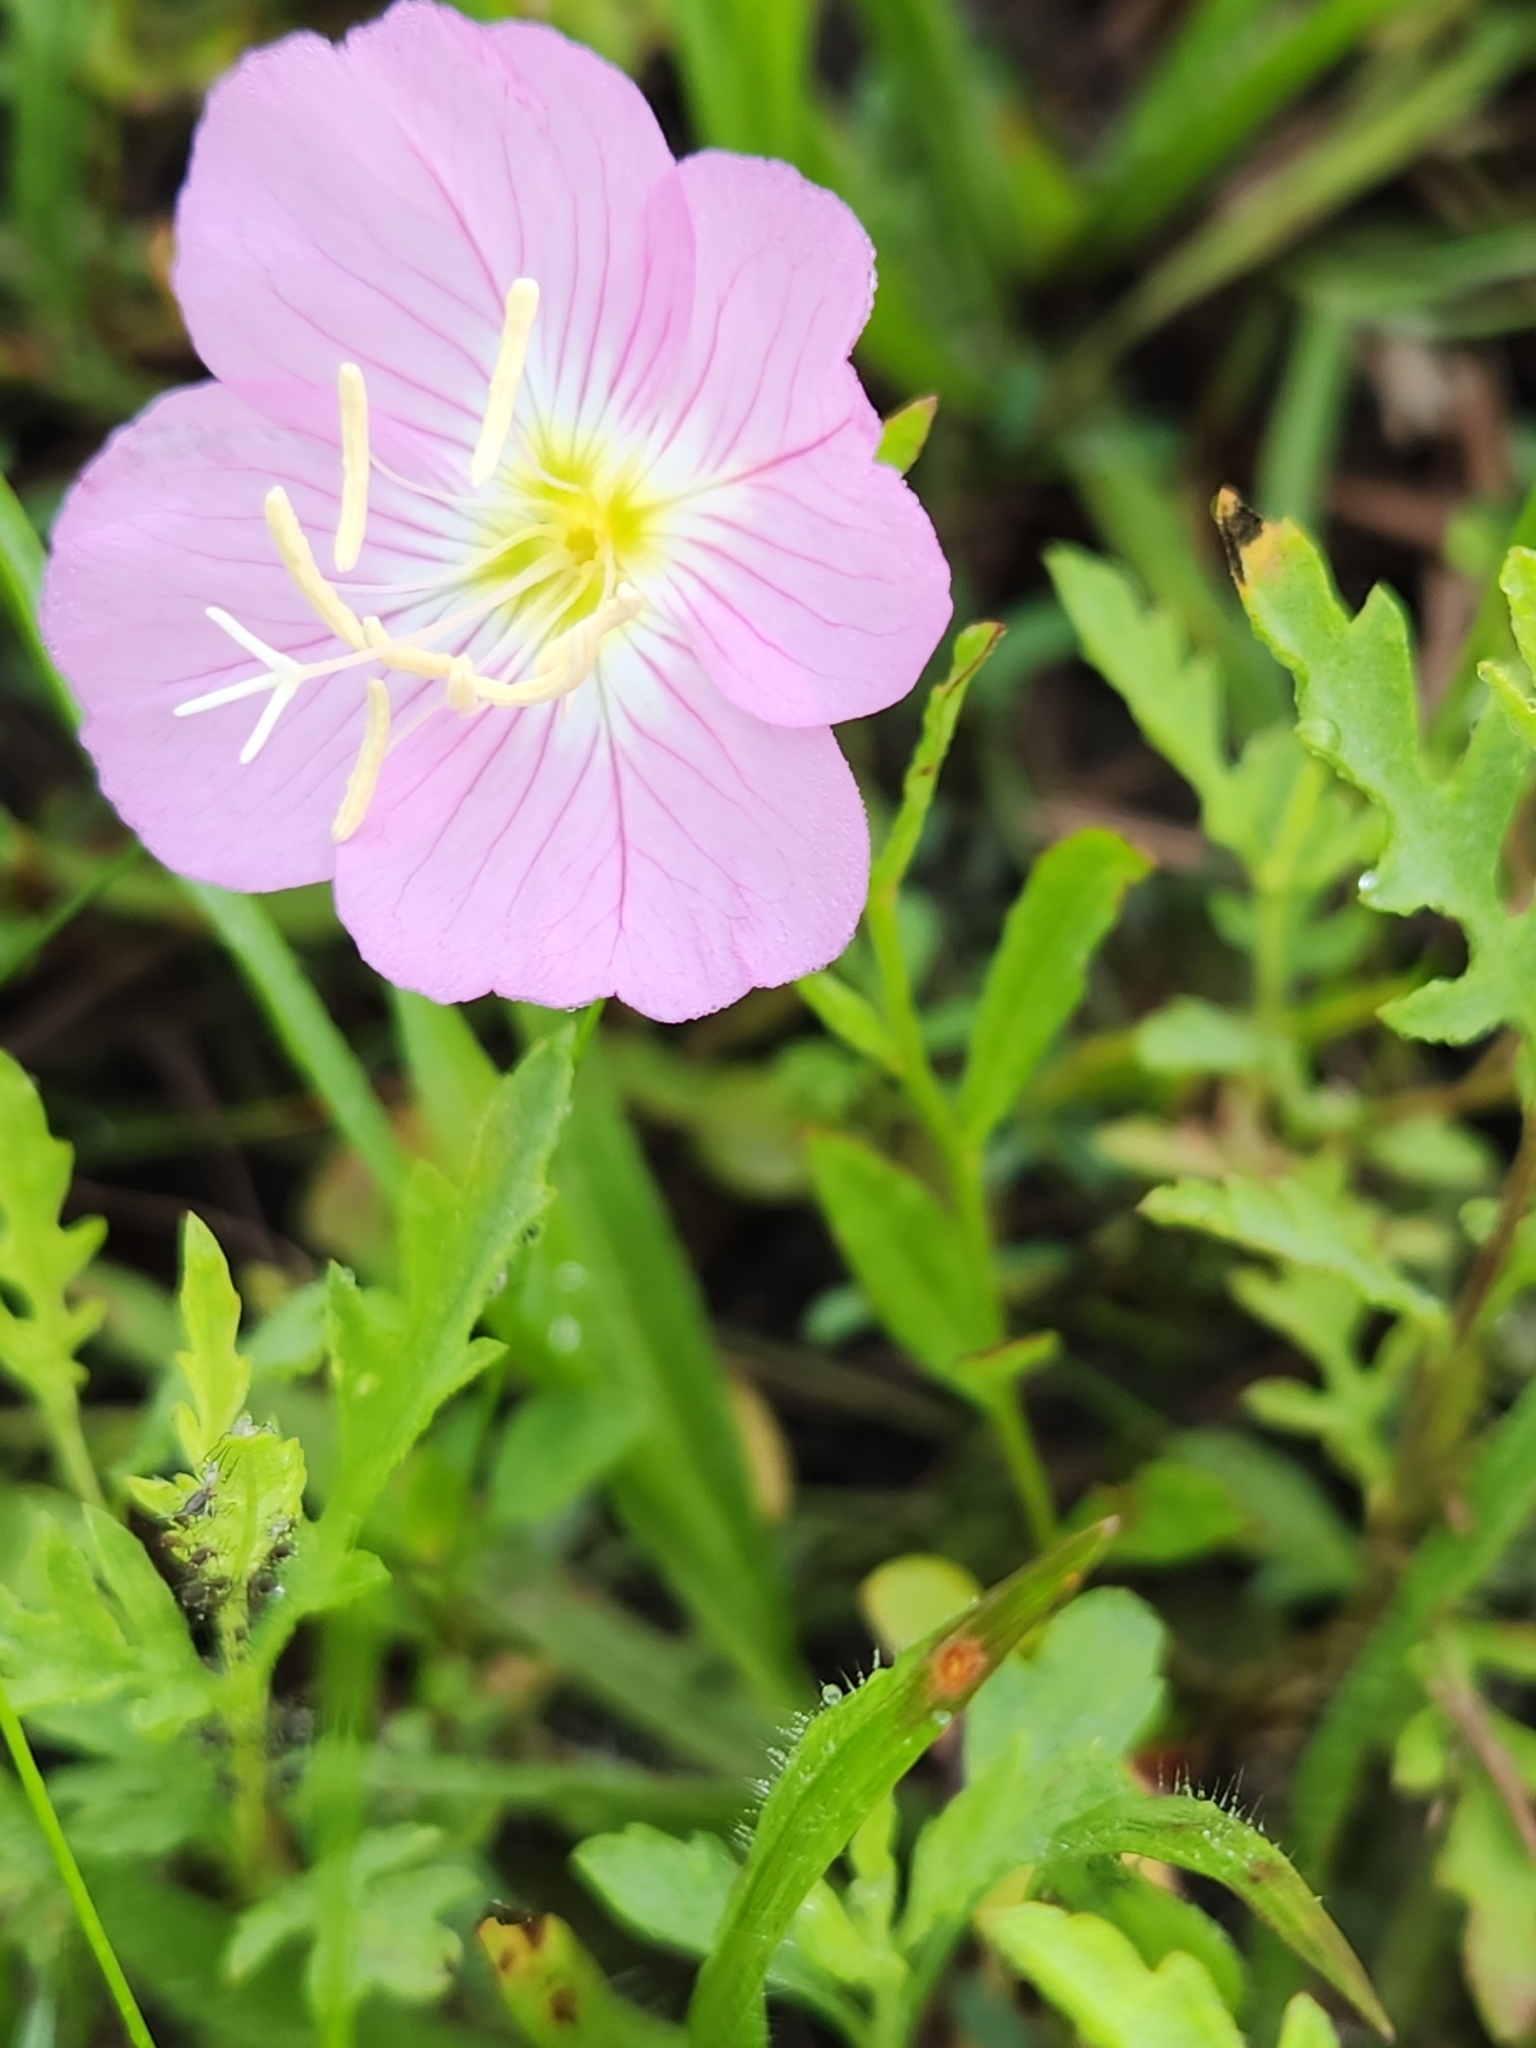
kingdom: Plantae
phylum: Tracheophyta
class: Magnoliopsida
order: Myrtales
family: Onagraceae
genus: Oenothera
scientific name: Oenothera speciosa
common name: White evening-primrose
